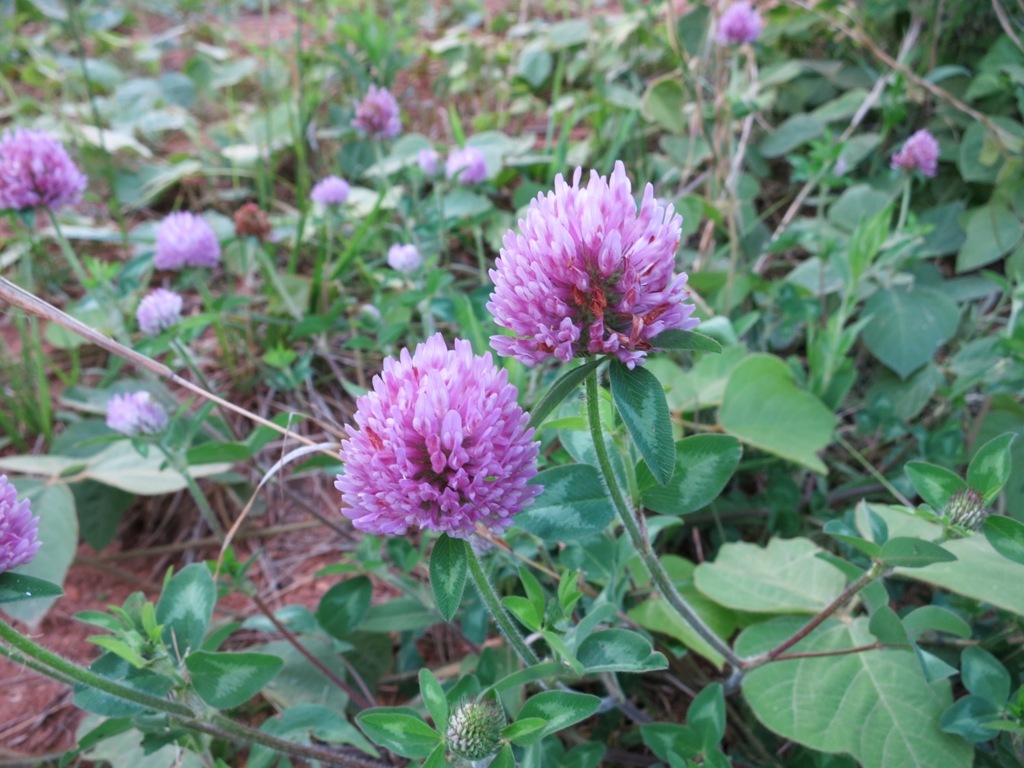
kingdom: Plantae
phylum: Tracheophyta
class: Magnoliopsida
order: Fabales
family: Fabaceae
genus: Trifolium
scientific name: Trifolium pratense
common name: Red clover
